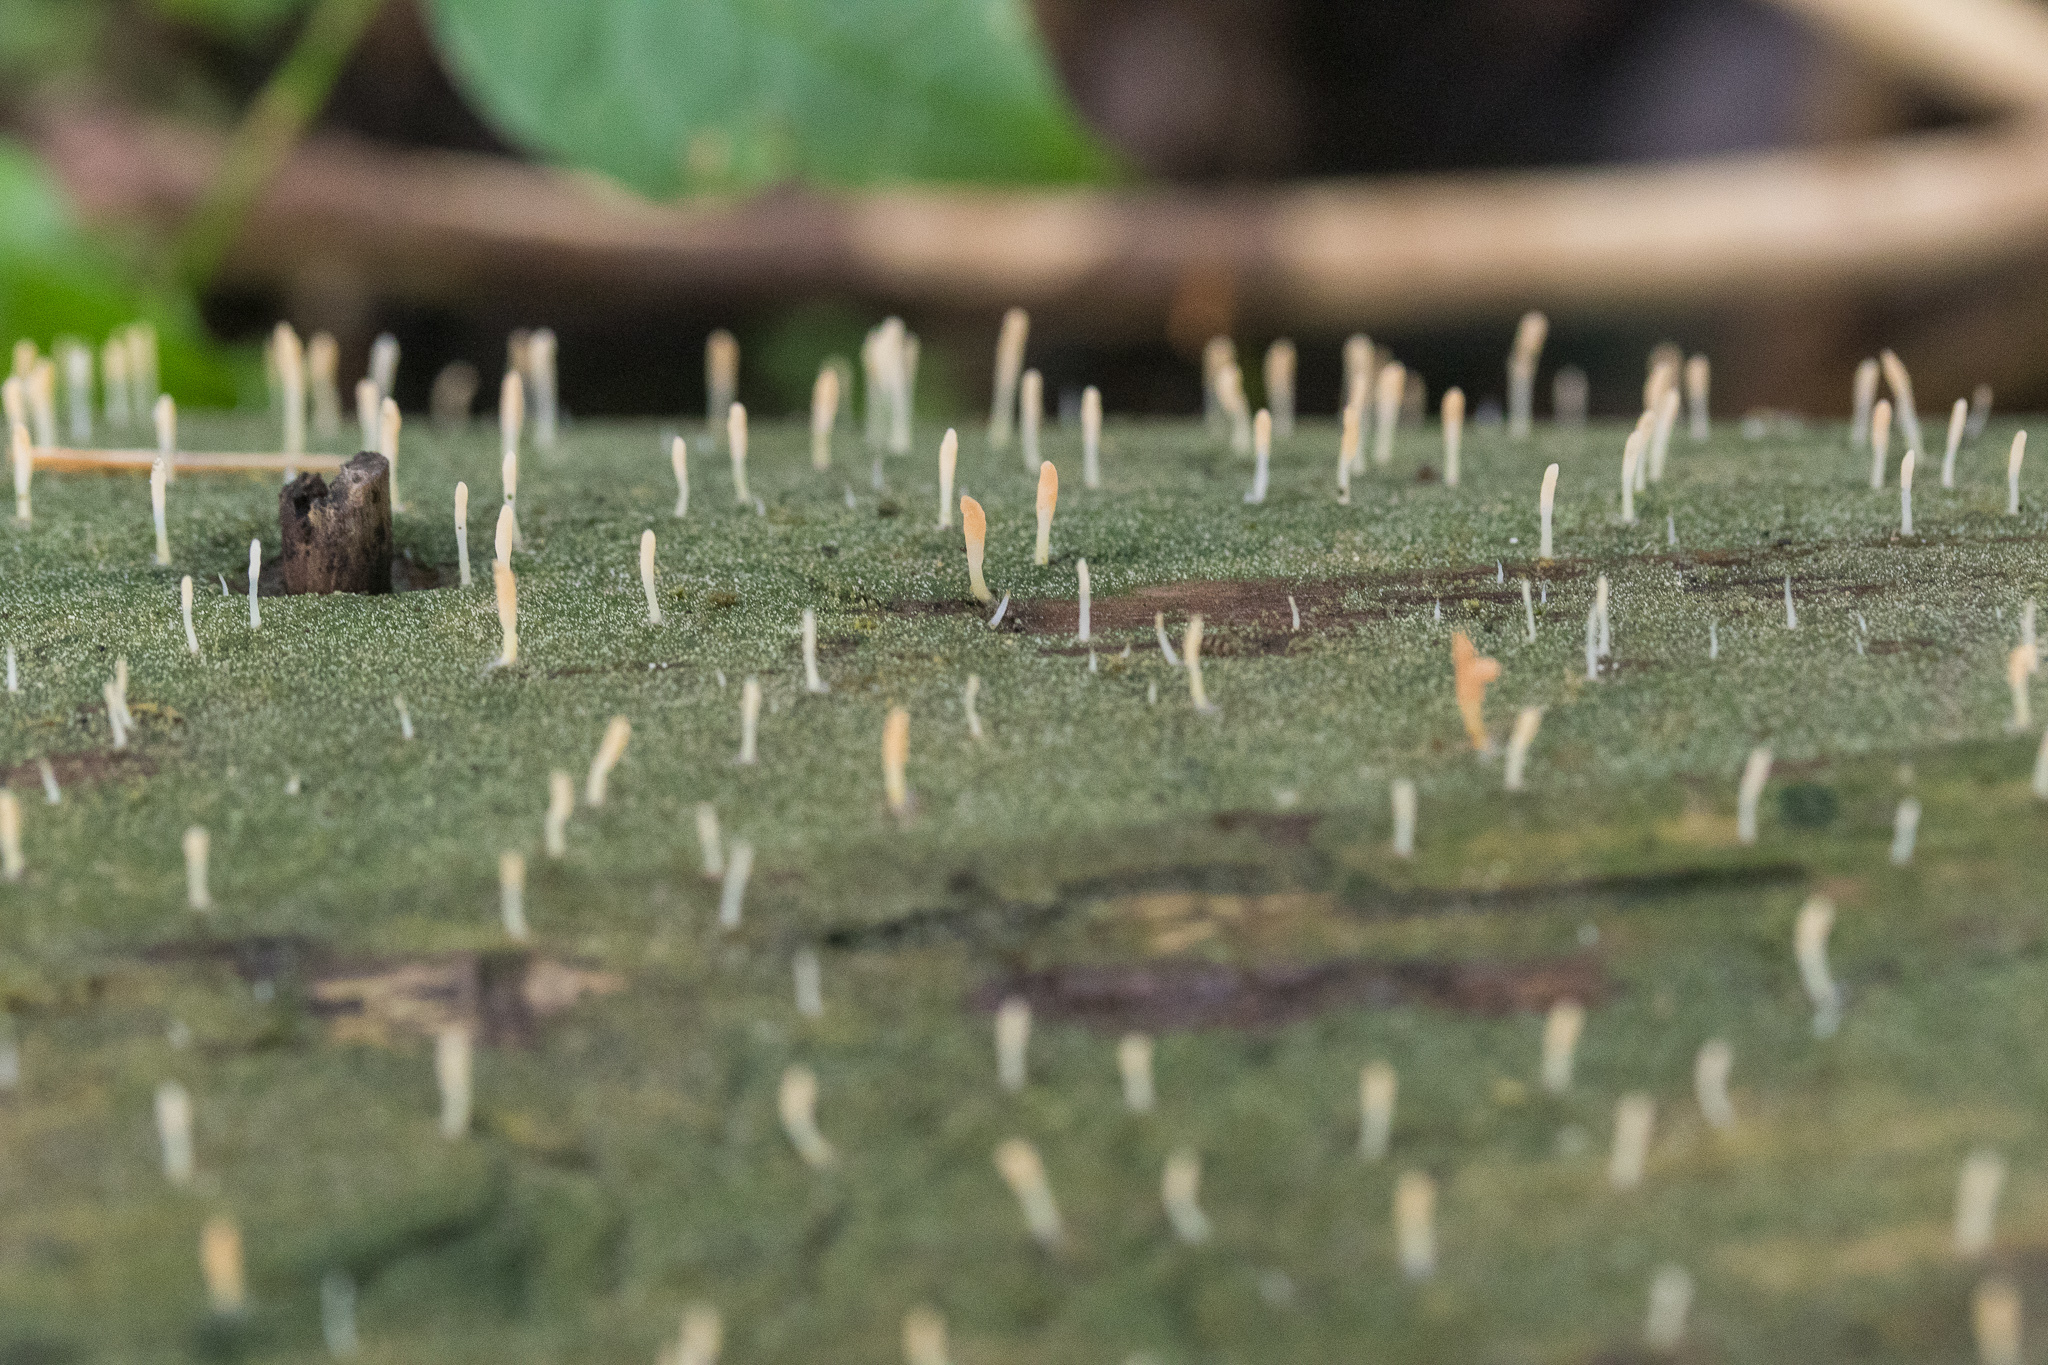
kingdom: Fungi
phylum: Basidiomycota
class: Agaricomycetes
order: Cantharellales
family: Hydnaceae
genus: Multiclavula
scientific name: Multiclavula mucida
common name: White green-algae coral
